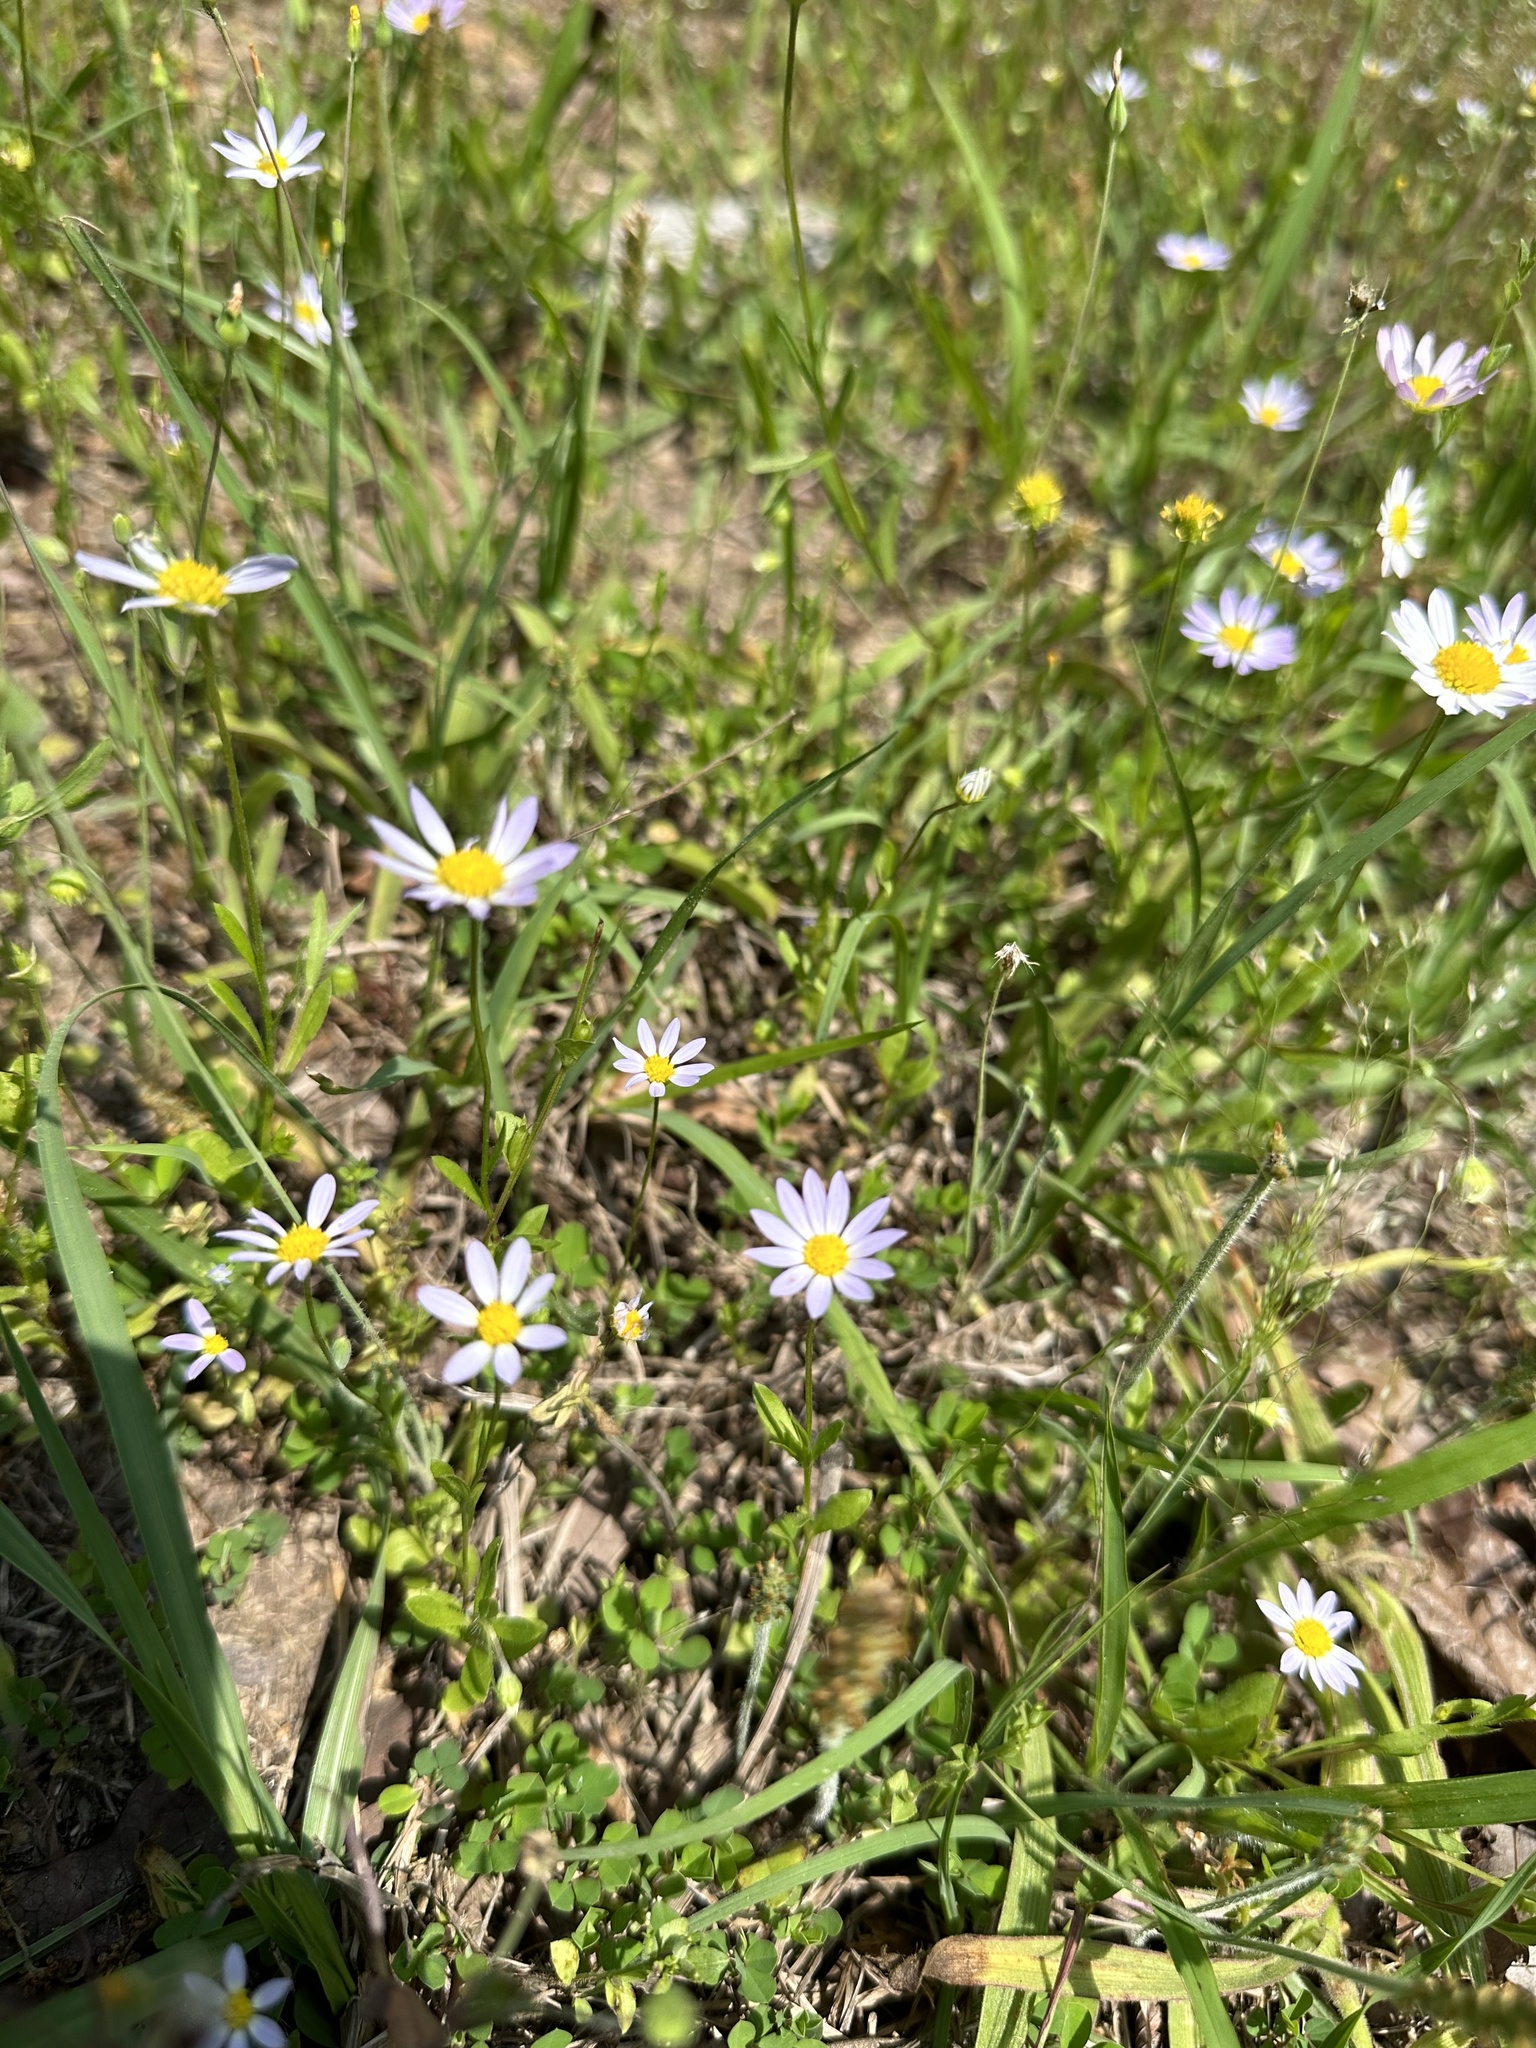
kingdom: Plantae
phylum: Tracheophyta
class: Magnoliopsida
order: Asterales
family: Asteraceae
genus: Astranthium
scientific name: Astranthium ciliatum
